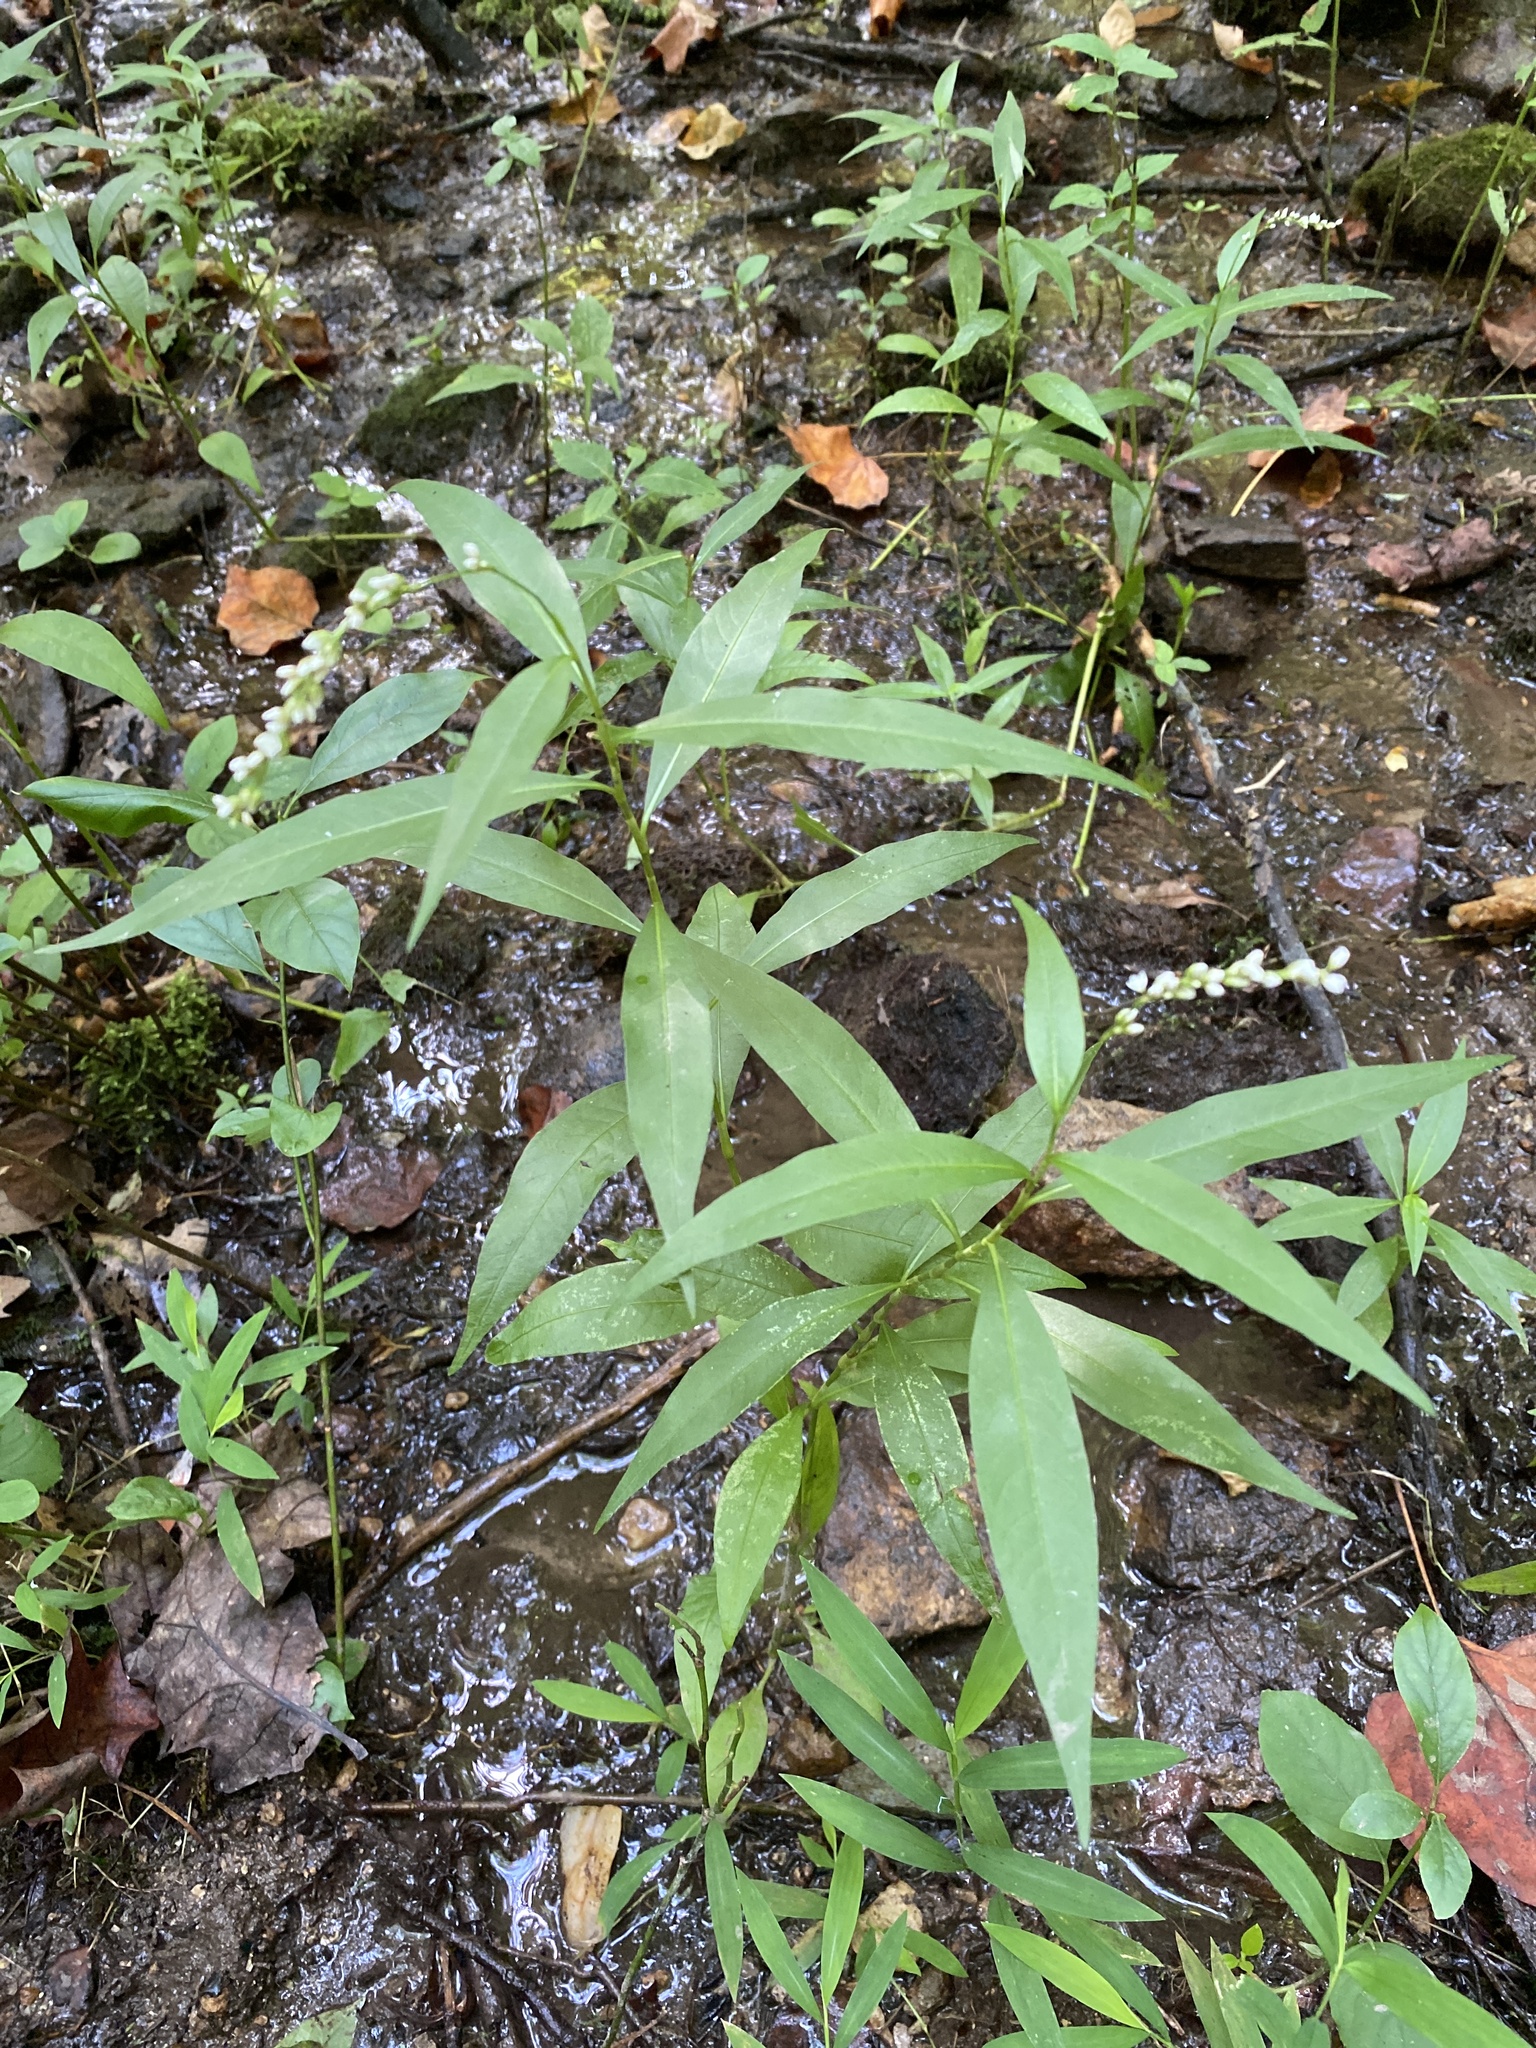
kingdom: Plantae
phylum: Tracheophyta
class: Magnoliopsida
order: Caryophyllales
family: Polygonaceae
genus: Persicaria
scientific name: Persicaria punctata
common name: Dotted smartweed
